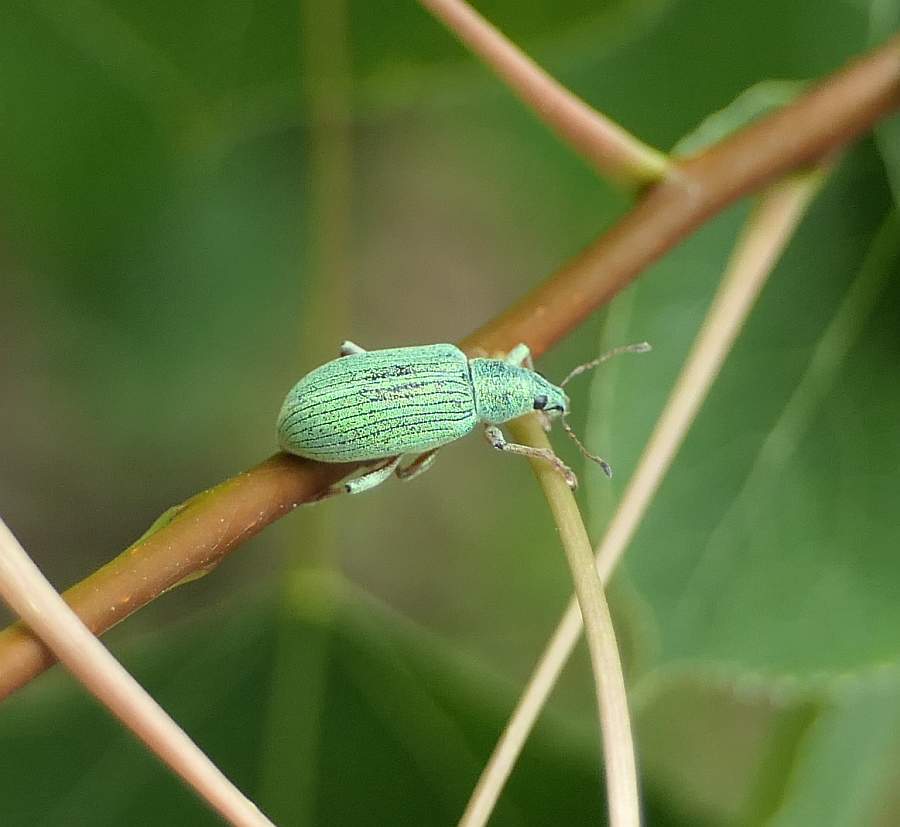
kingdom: Animalia
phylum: Arthropoda
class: Insecta
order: Coleoptera
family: Curculionidae
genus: Polydrusus
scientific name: Polydrusus formosus
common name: Weevil
